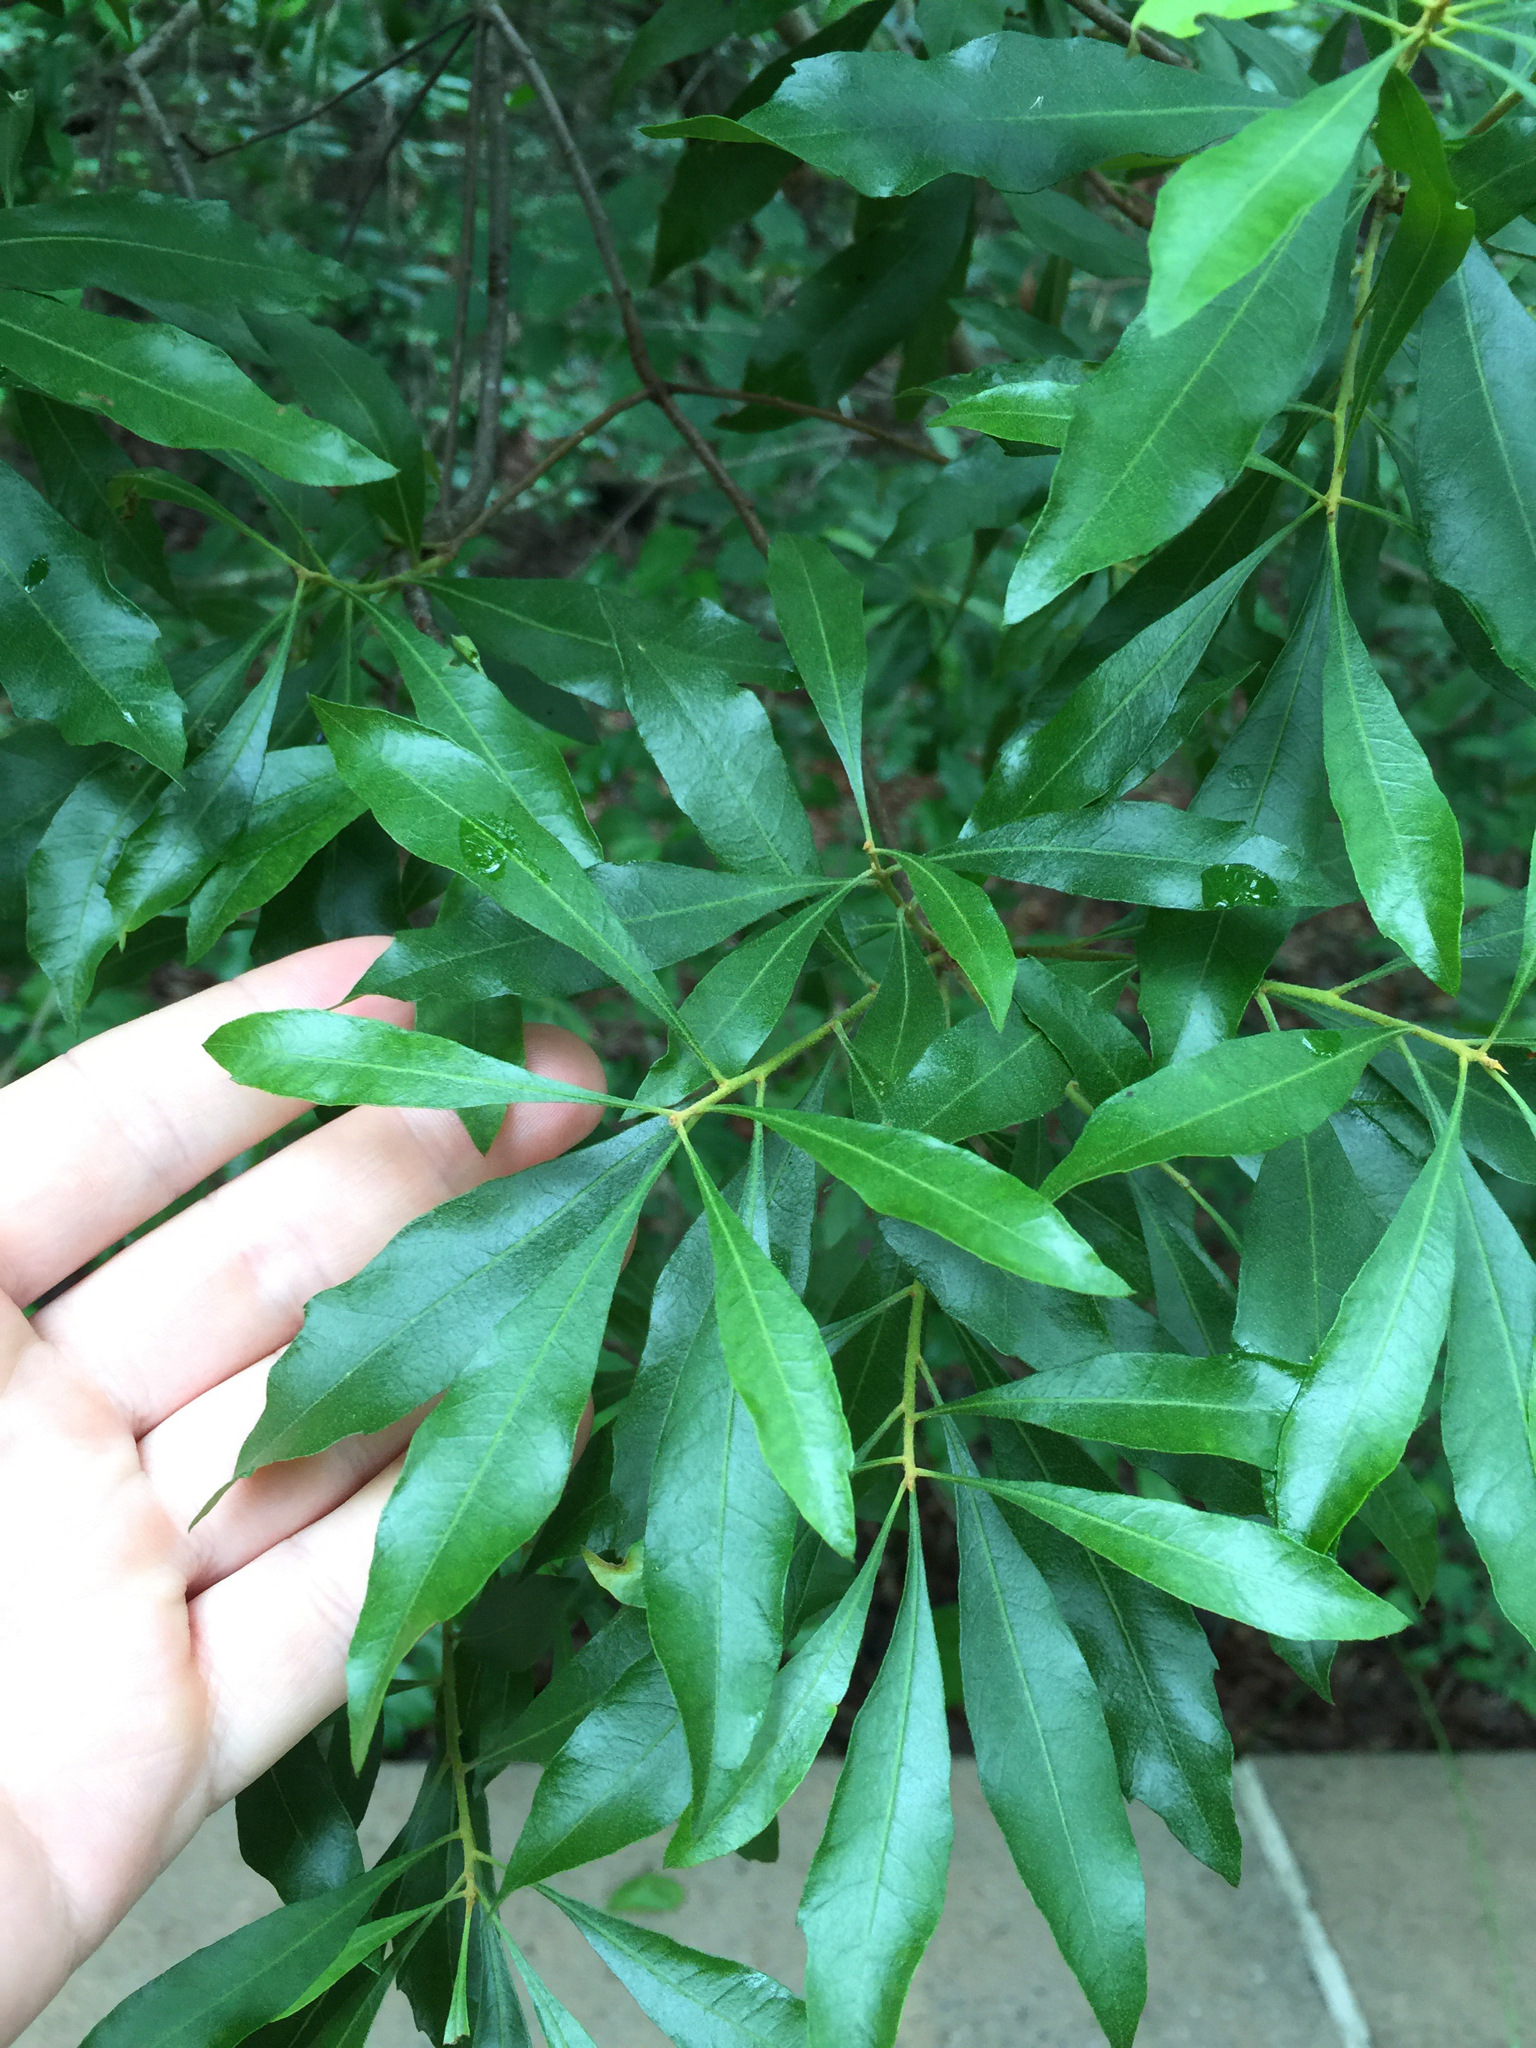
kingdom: Plantae
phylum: Tracheophyta
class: Magnoliopsida
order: Fagales
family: Myricaceae
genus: Morella
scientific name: Morella cerifera
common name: Wax myrtle
